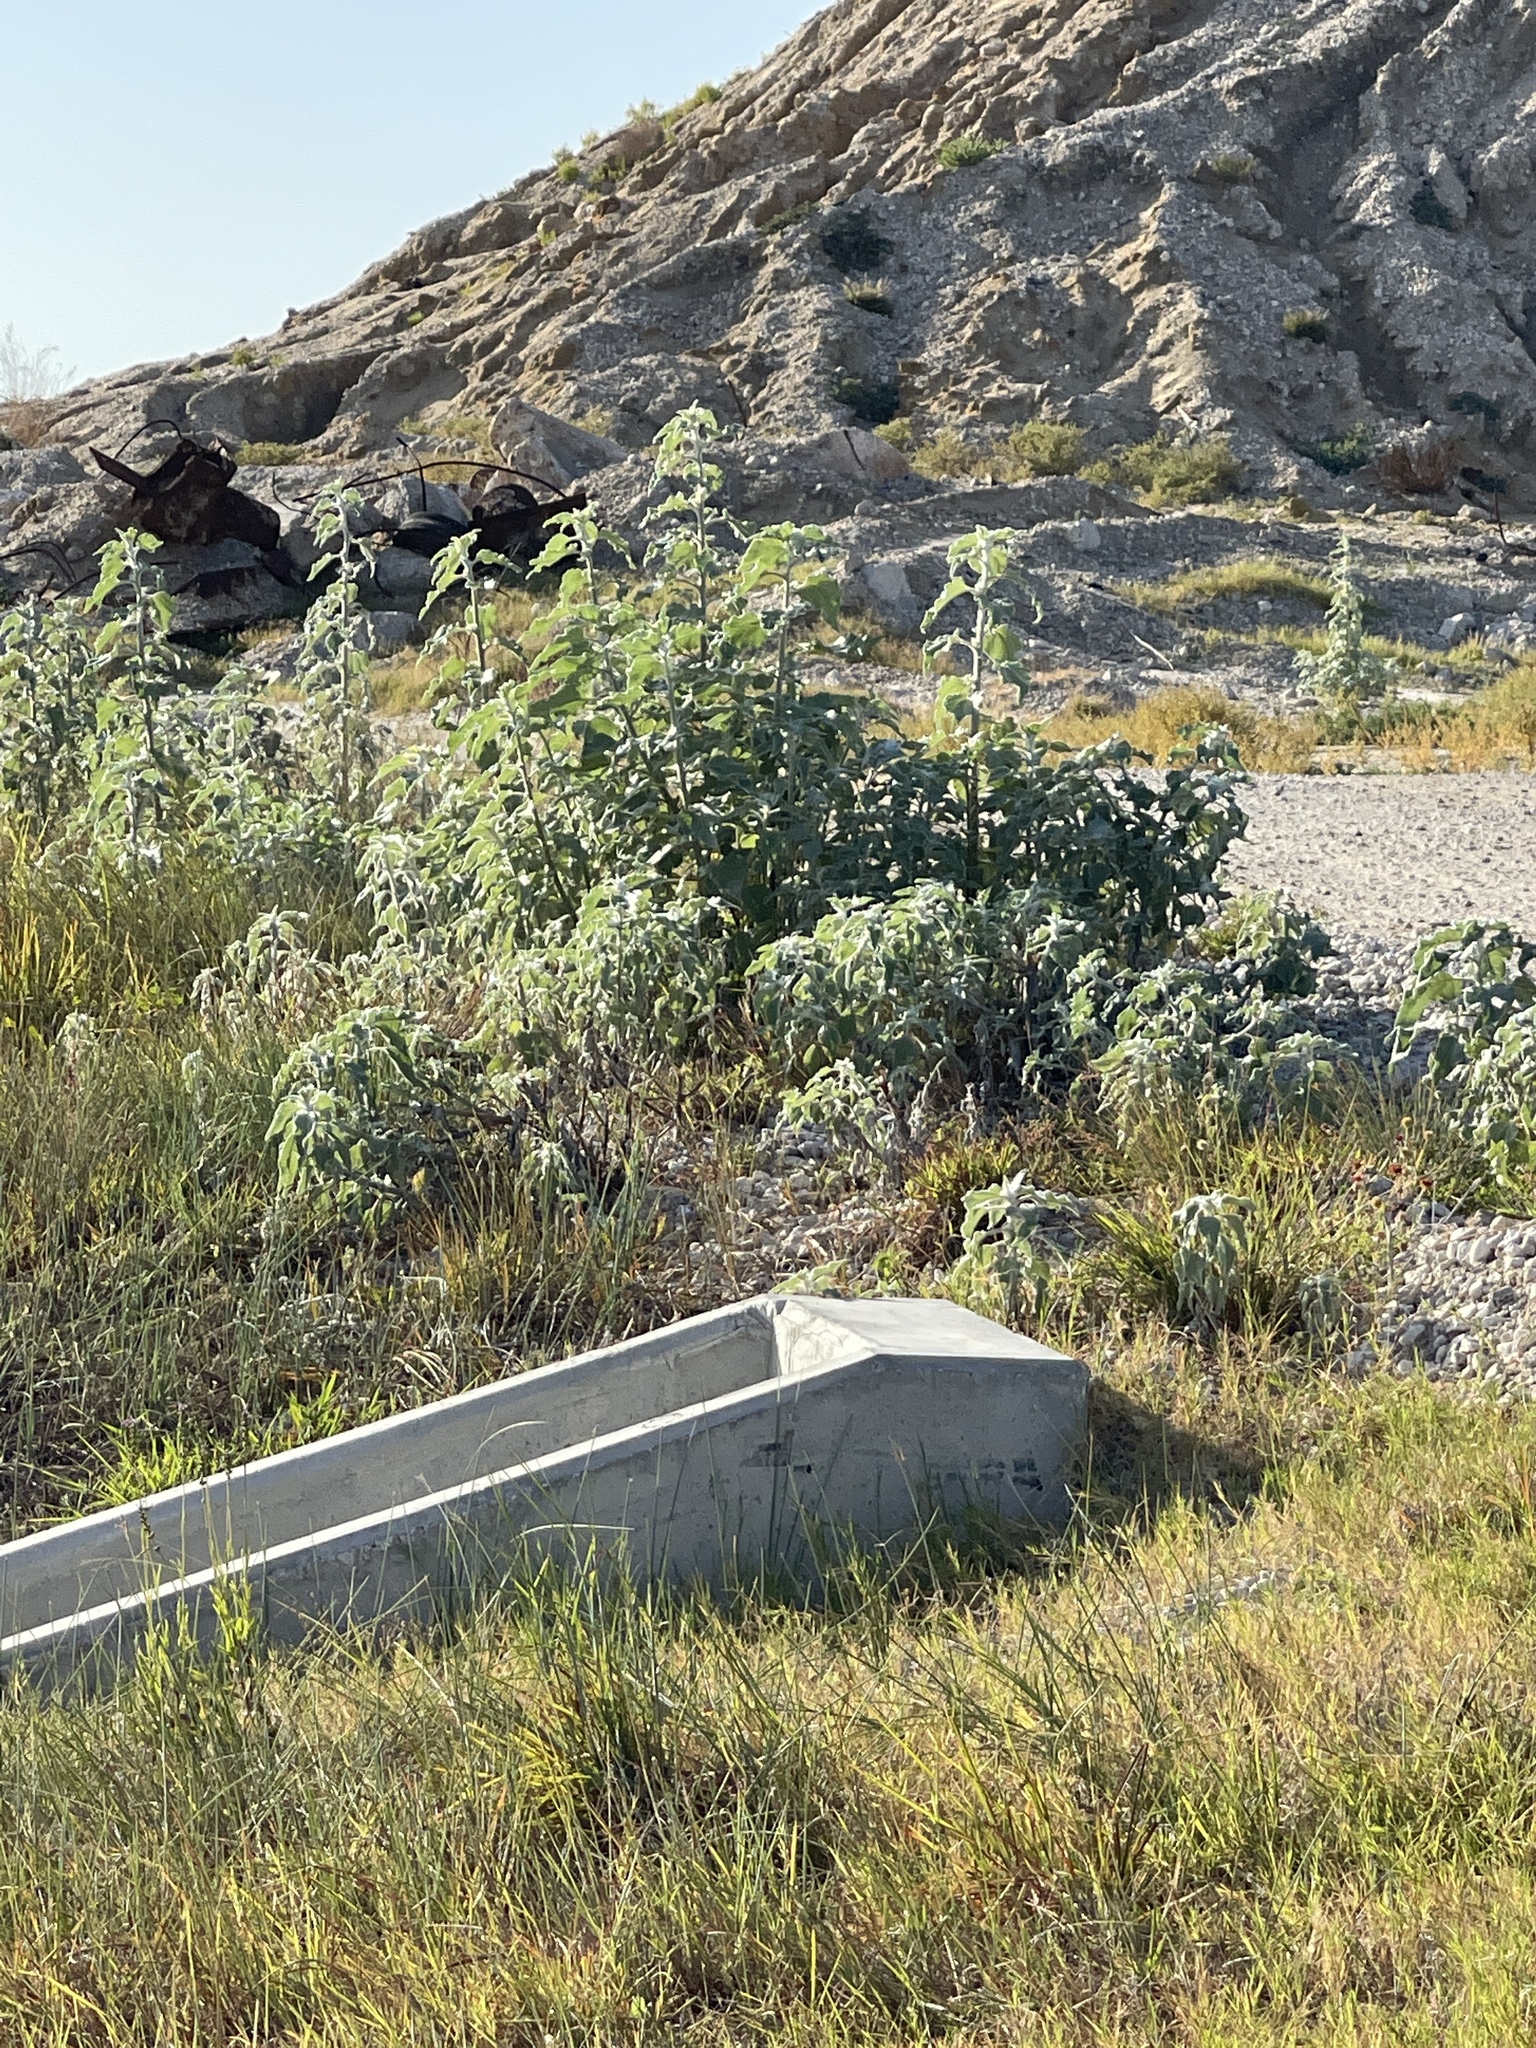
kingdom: Plantae
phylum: Tracheophyta
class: Magnoliopsida
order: Asterales
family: Asteraceae
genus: Helianthus
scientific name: Helianthus argophyllus
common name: Silverleaf sunflower
